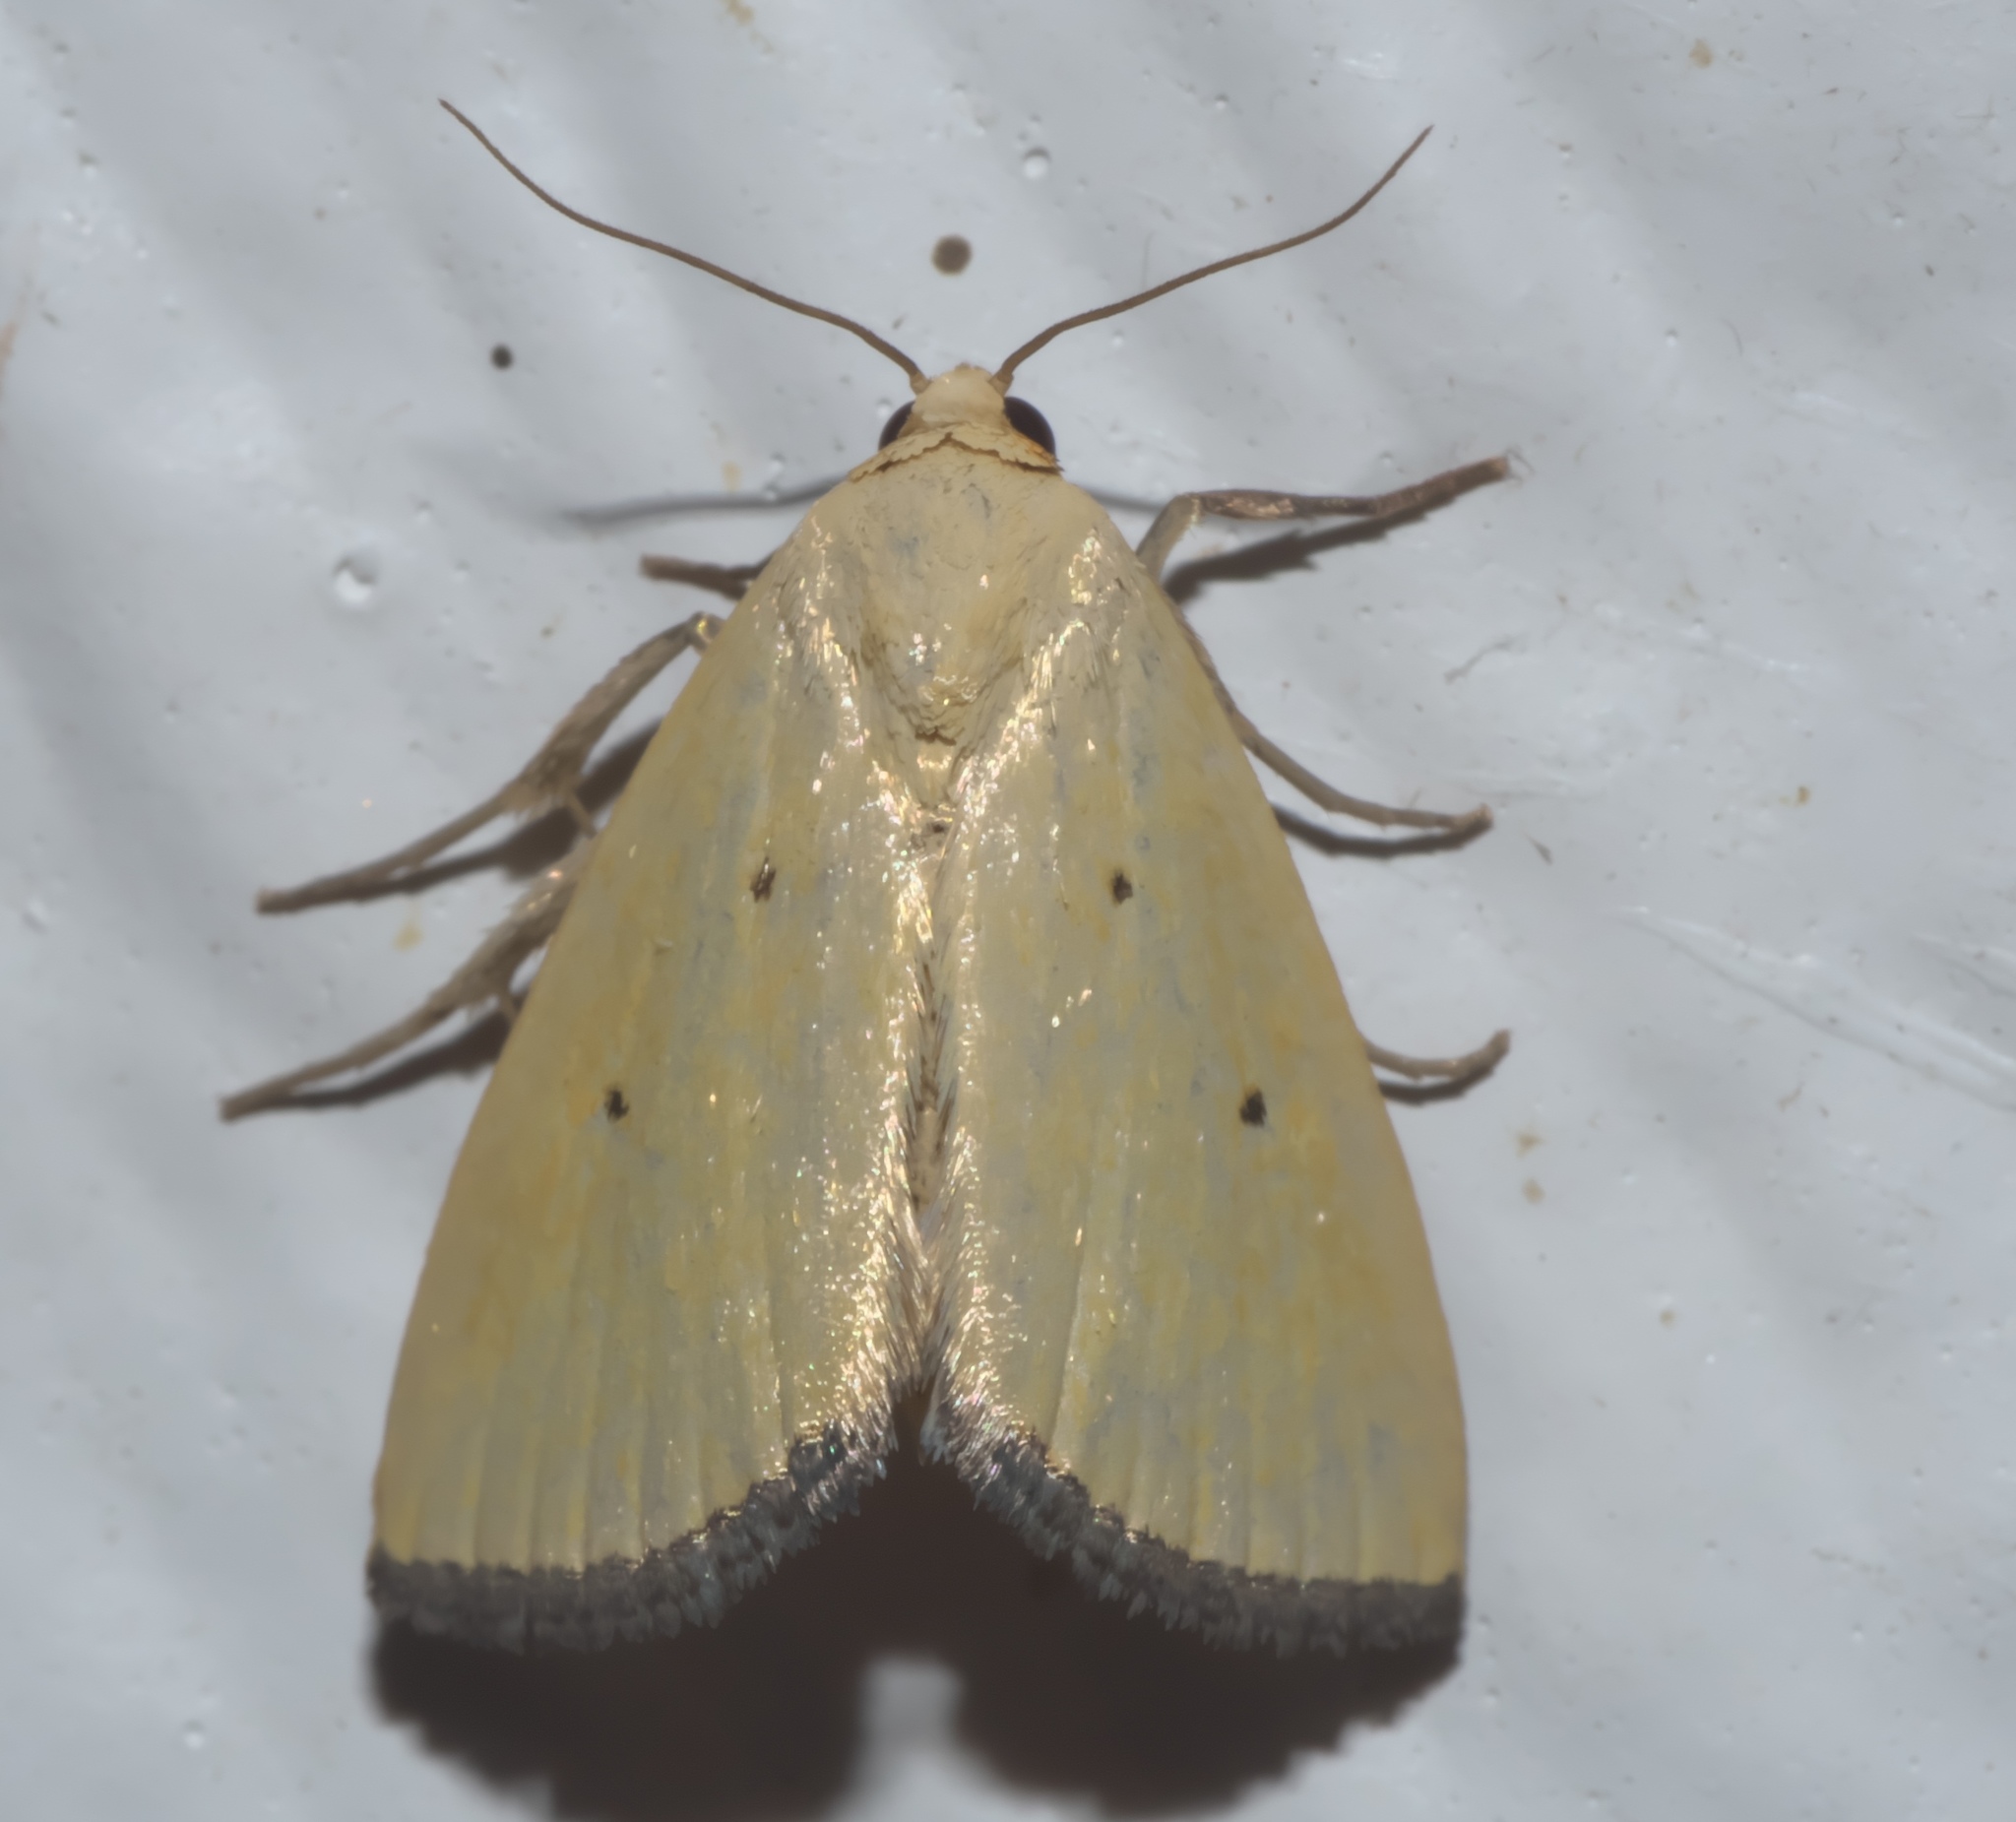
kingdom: Animalia
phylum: Arthropoda
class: Insecta
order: Lepidoptera
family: Noctuidae
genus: Marimatha
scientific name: Marimatha nigrofimbria
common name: Black-bordered lemon moth
